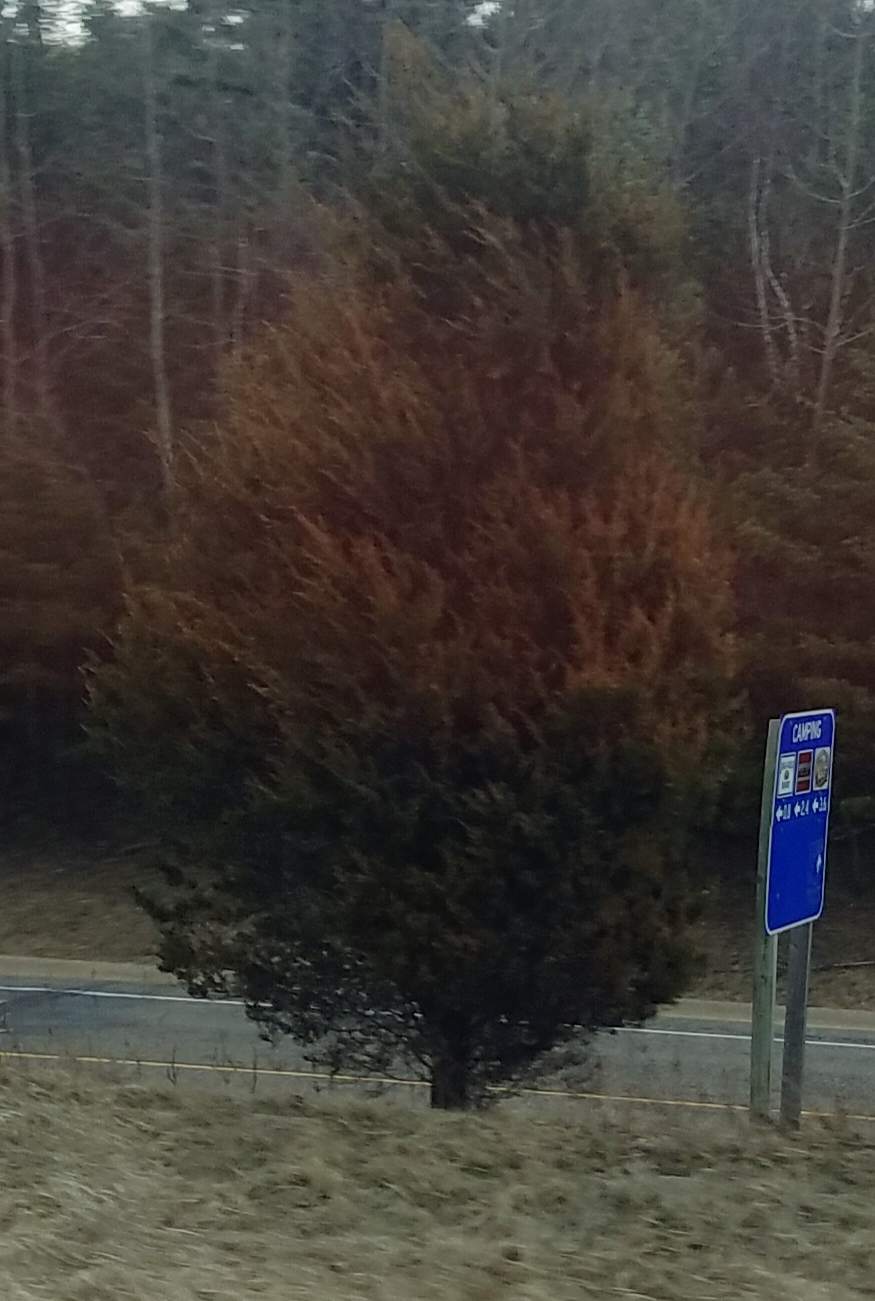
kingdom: Plantae
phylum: Tracheophyta
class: Pinopsida
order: Pinales
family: Cupressaceae
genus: Juniperus
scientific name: Juniperus virginiana
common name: Red juniper
